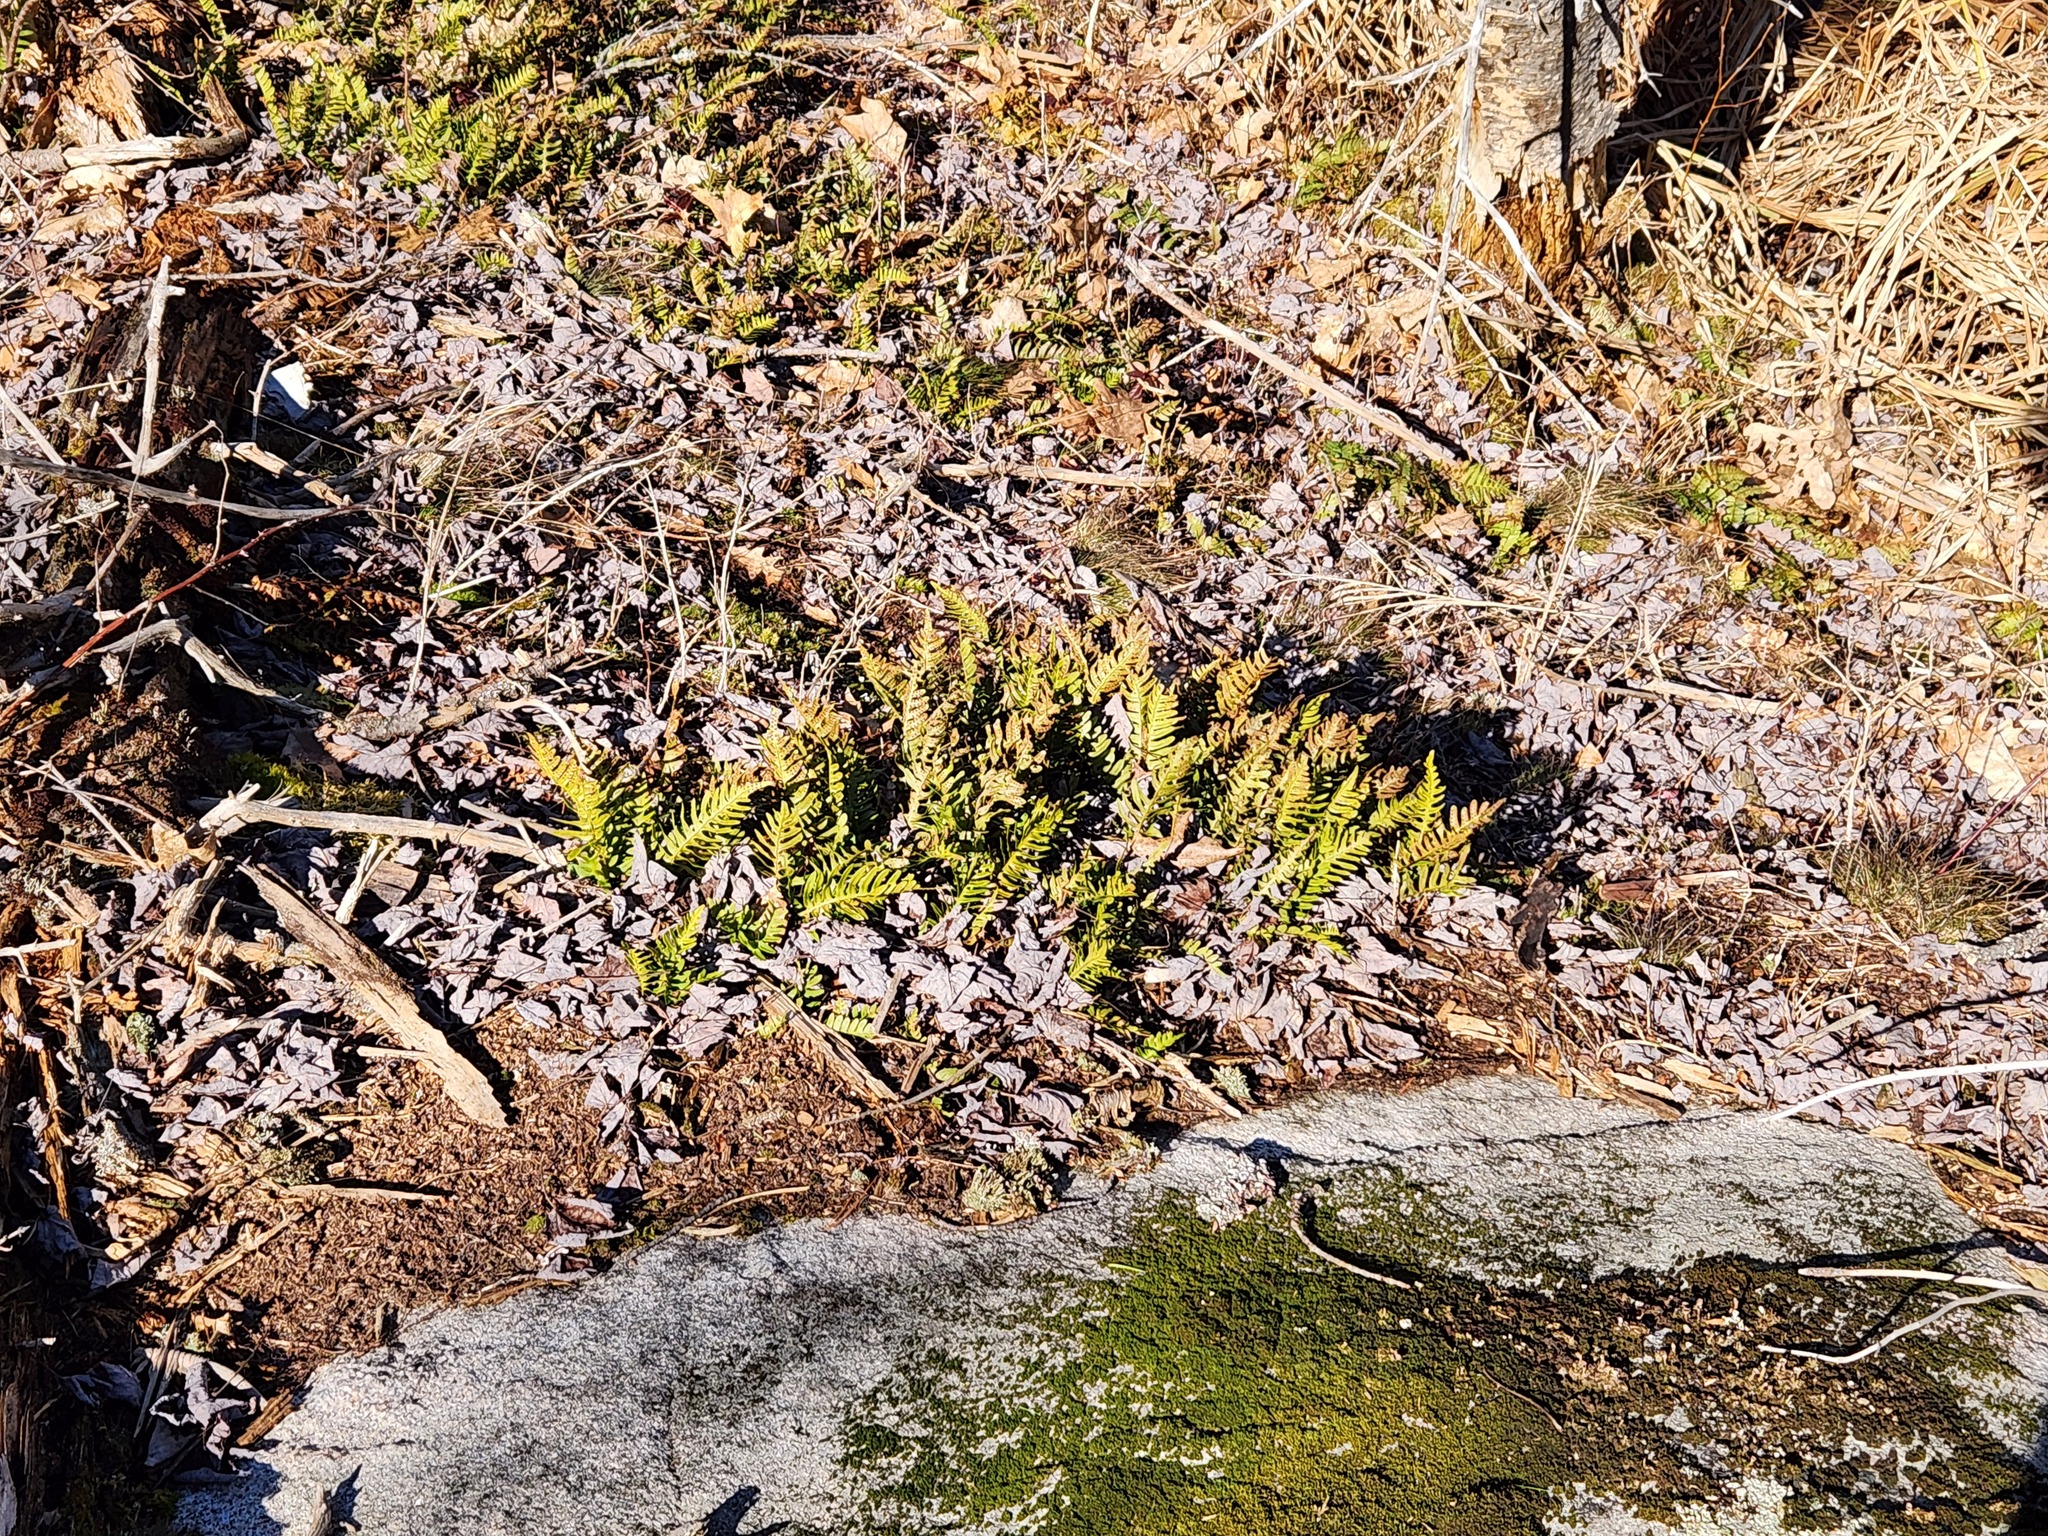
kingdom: Plantae
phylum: Tracheophyta
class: Polypodiopsida
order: Polypodiales
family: Polypodiaceae
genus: Polypodium
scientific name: Polypodium virginianum
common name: American wall fern
